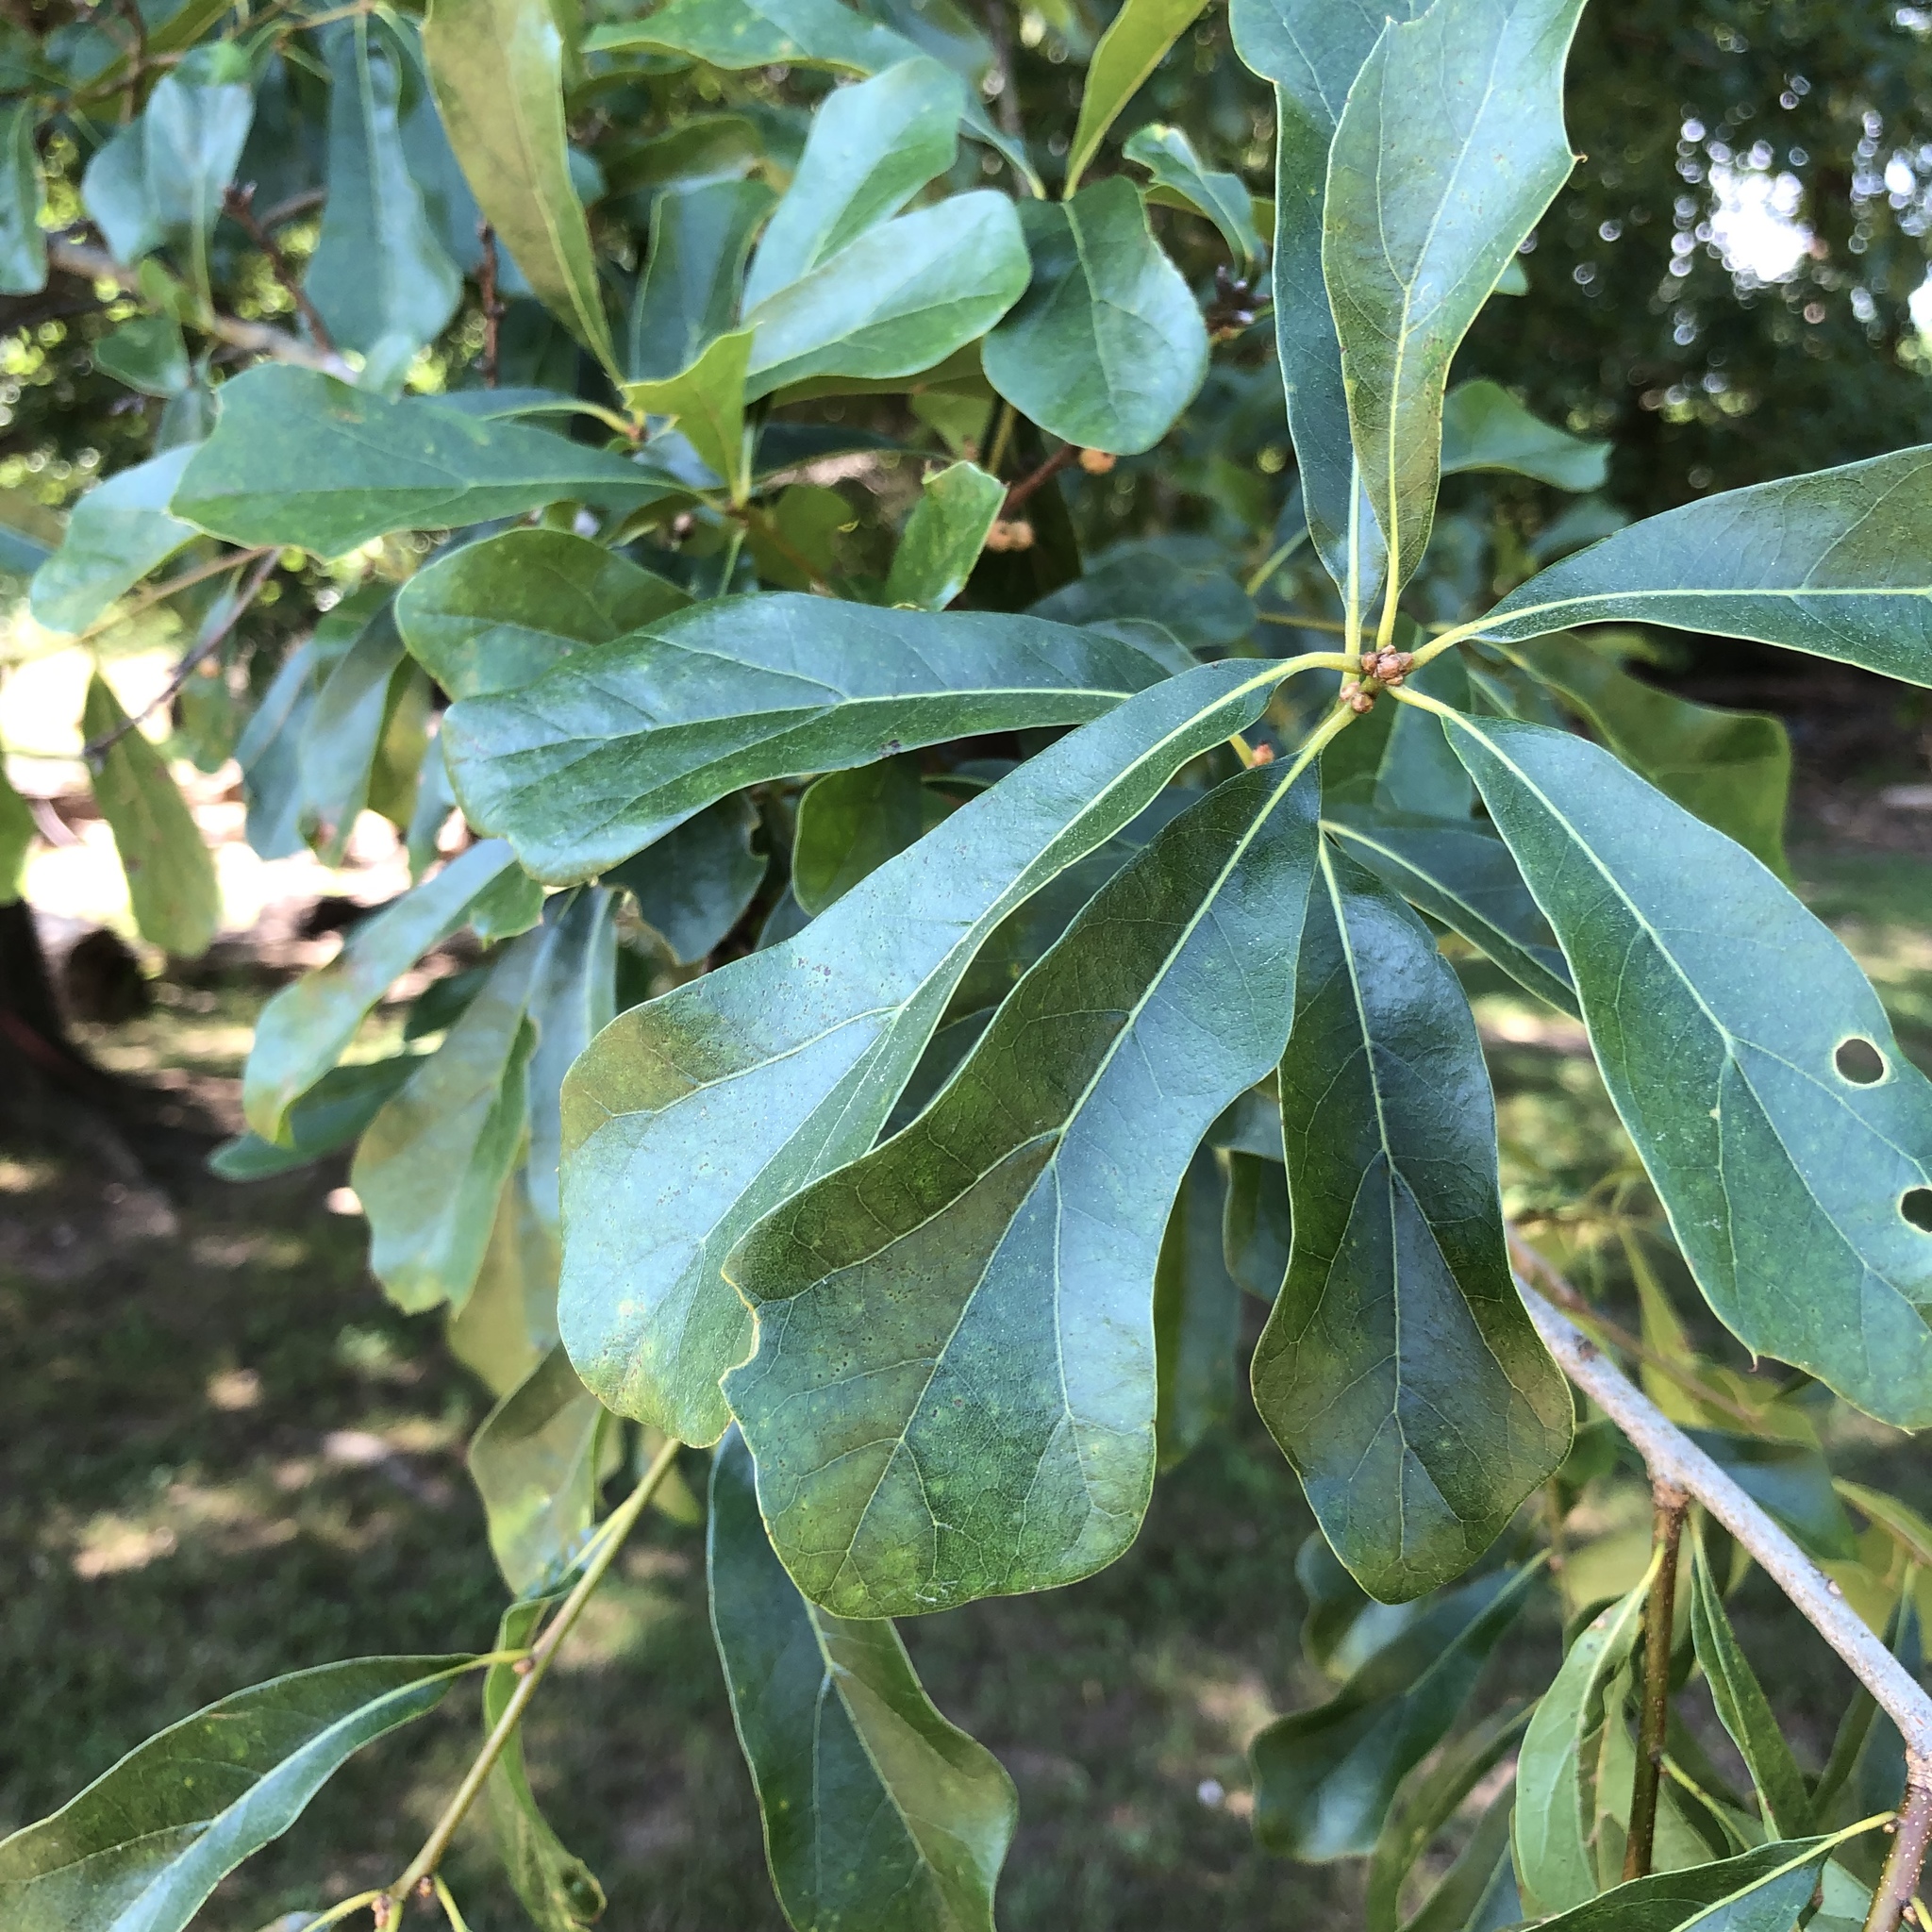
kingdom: Plantae
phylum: Tracheophyta
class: Magnoliopsida
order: Fagales
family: Fagaceae
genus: Quercus
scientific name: Quercus nigra
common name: Water oak
